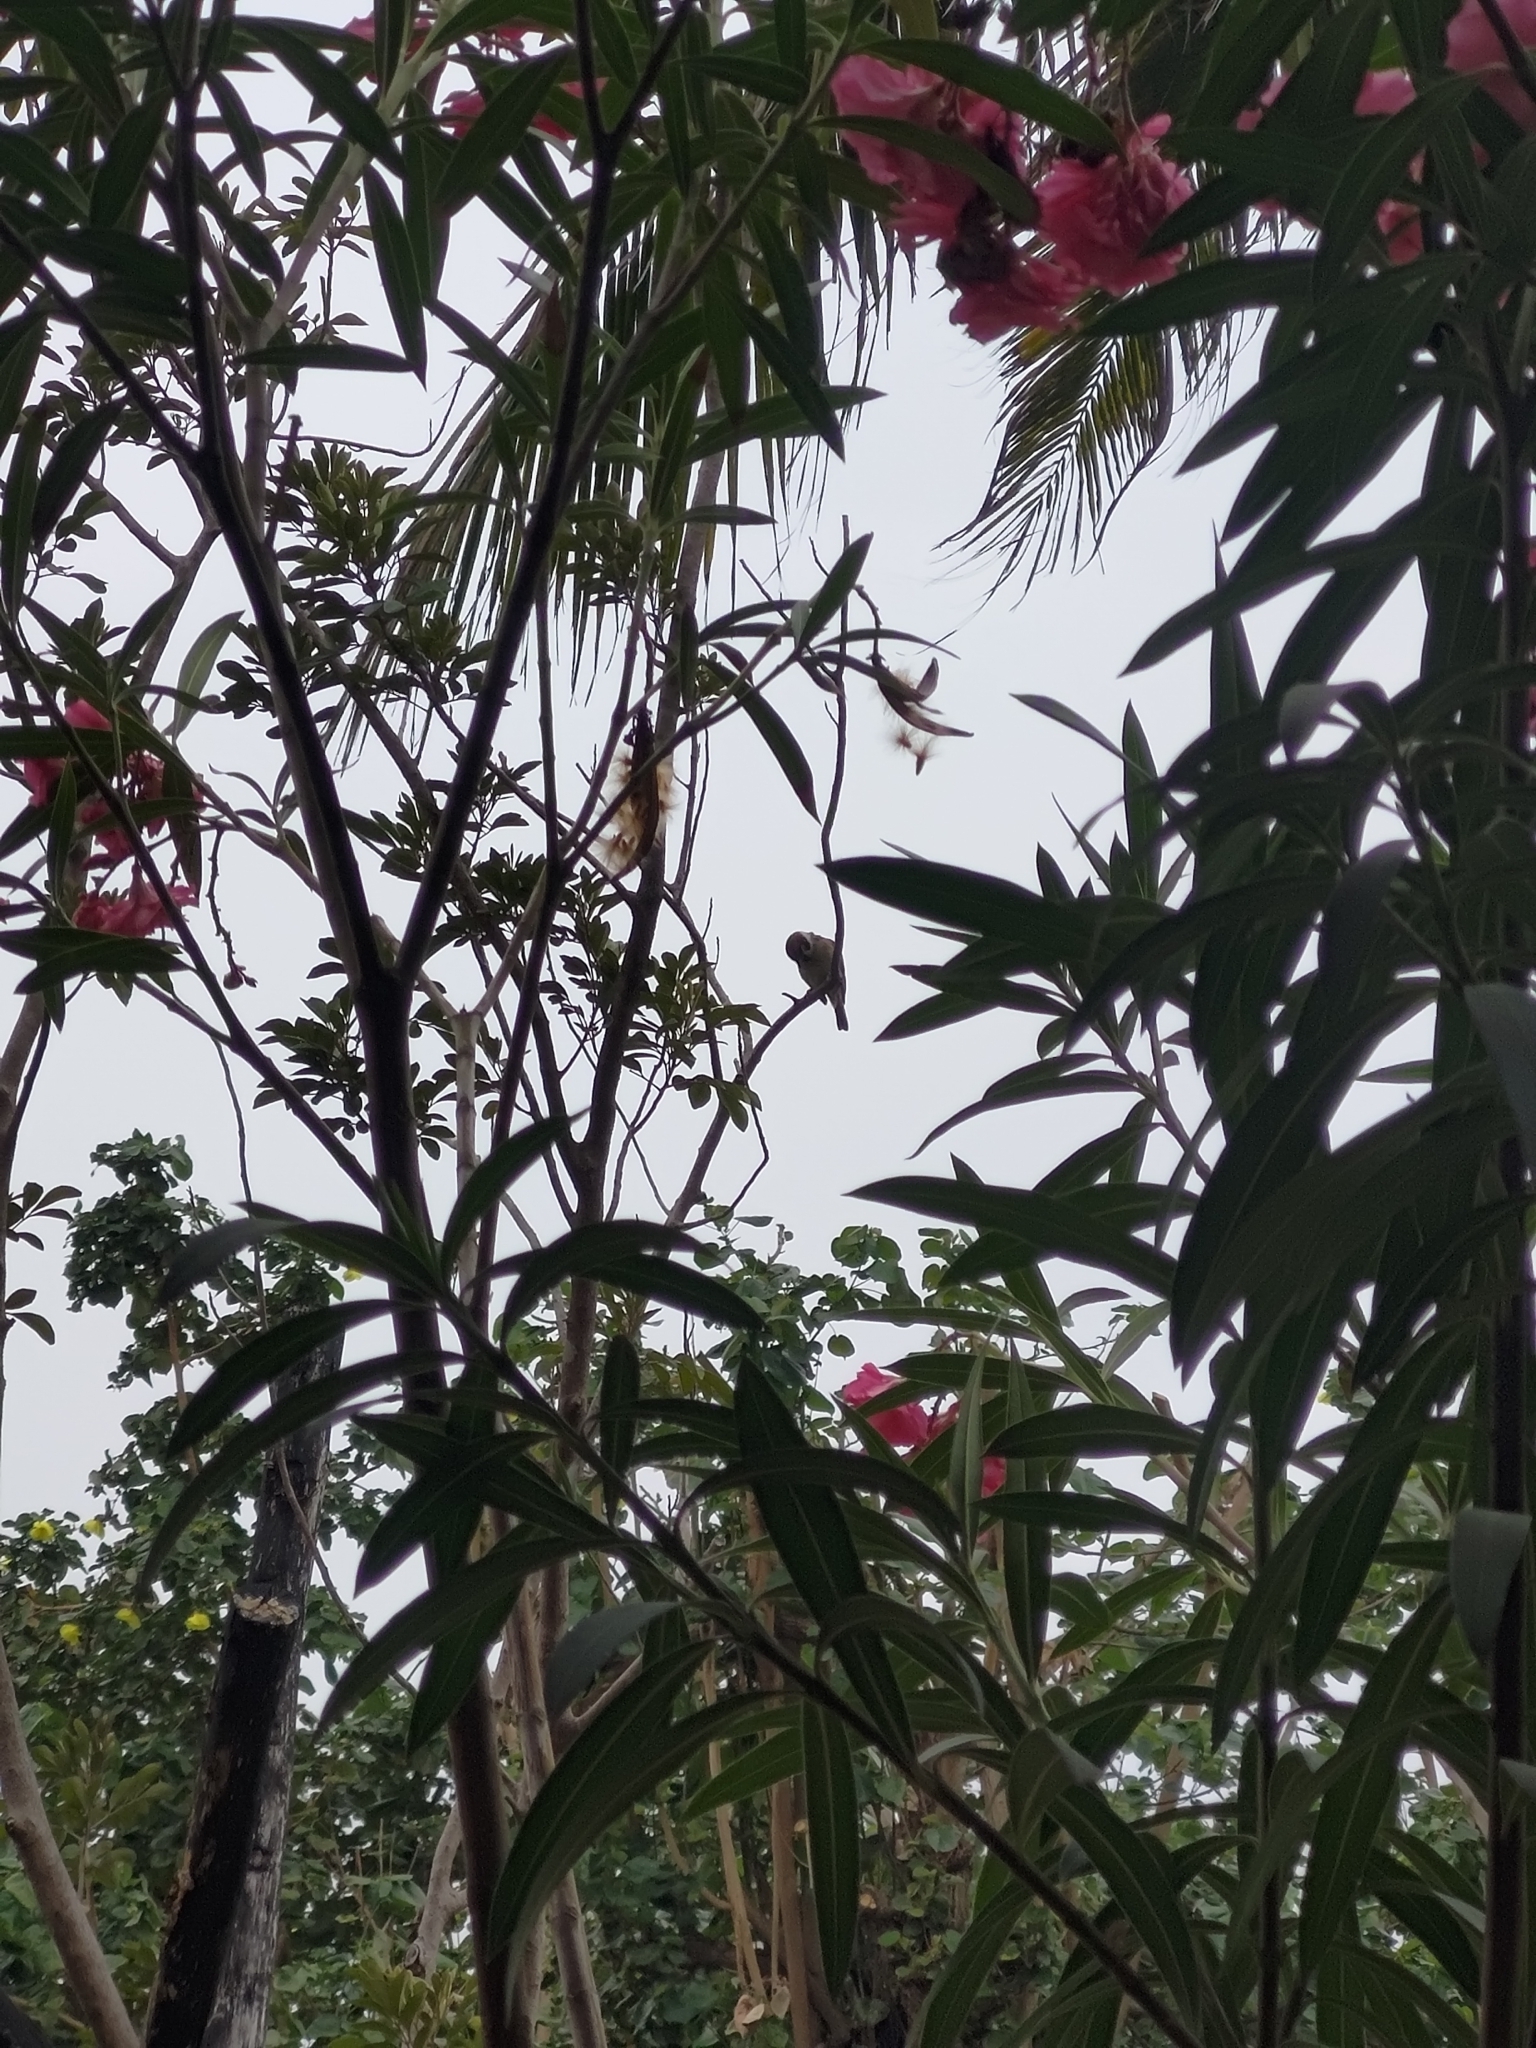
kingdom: Animalia
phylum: Chordata
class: Aves
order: Passeriformes
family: Passeridae
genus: Passer
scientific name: Passer montanus
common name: Eurasian tree sparrow
